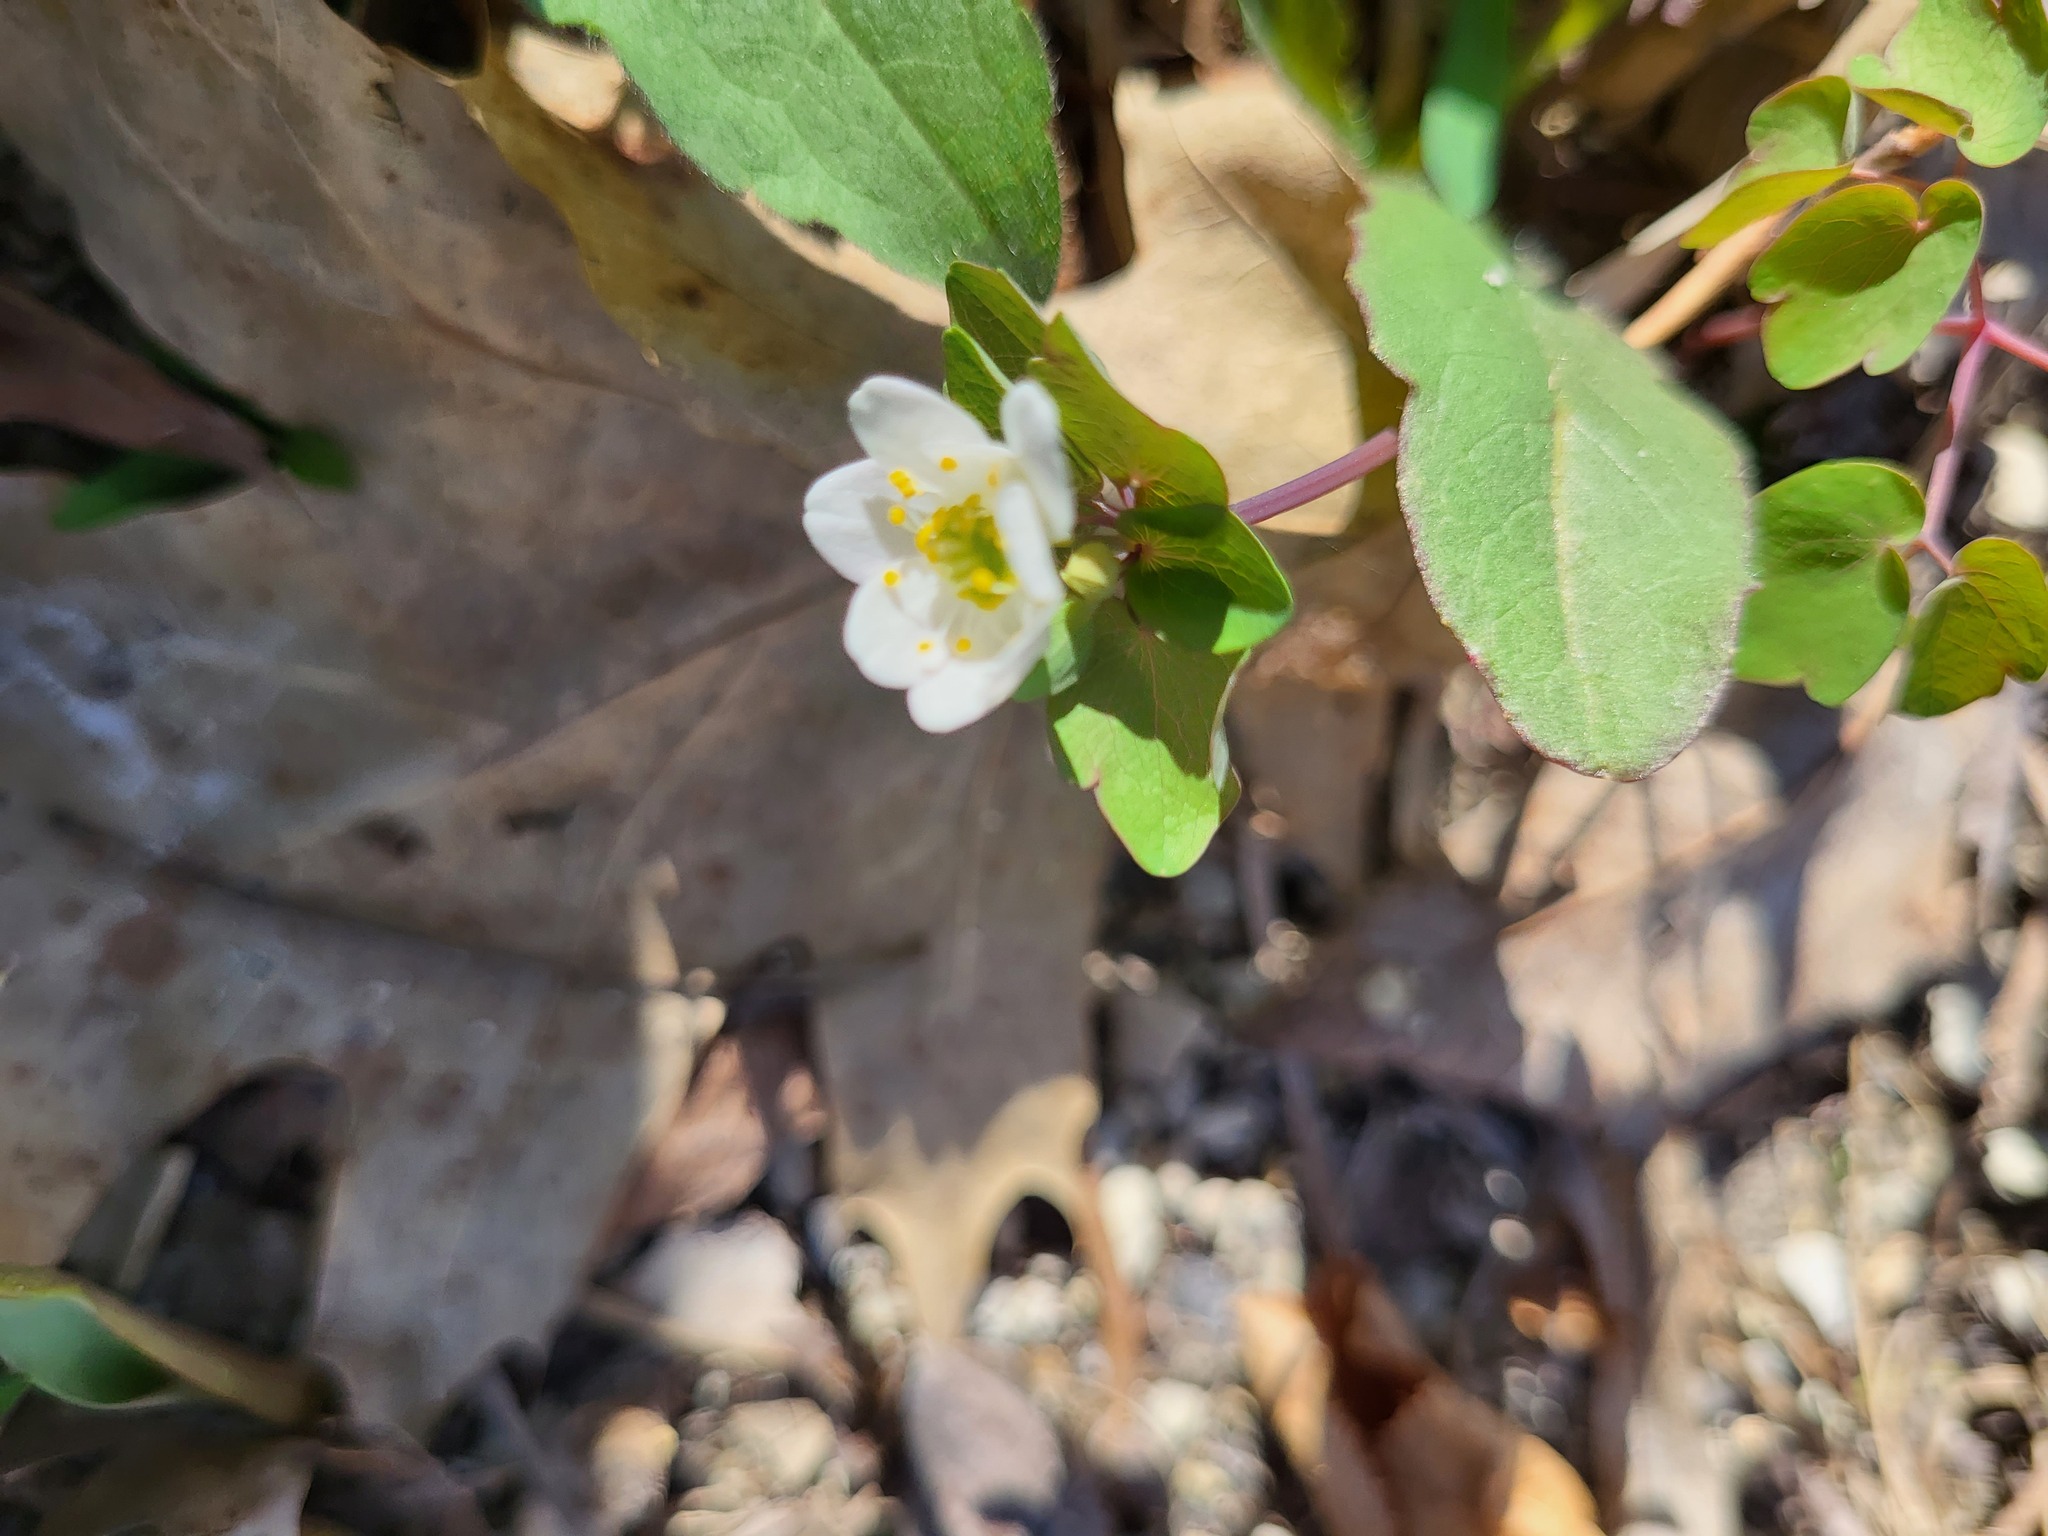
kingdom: Plantae
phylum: Tracheophyta
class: Magnoliopsida
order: Ranunculales
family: Ranunculaceae
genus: Thalictrum
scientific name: Thalictrum thalictroides
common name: Rue-anemone
